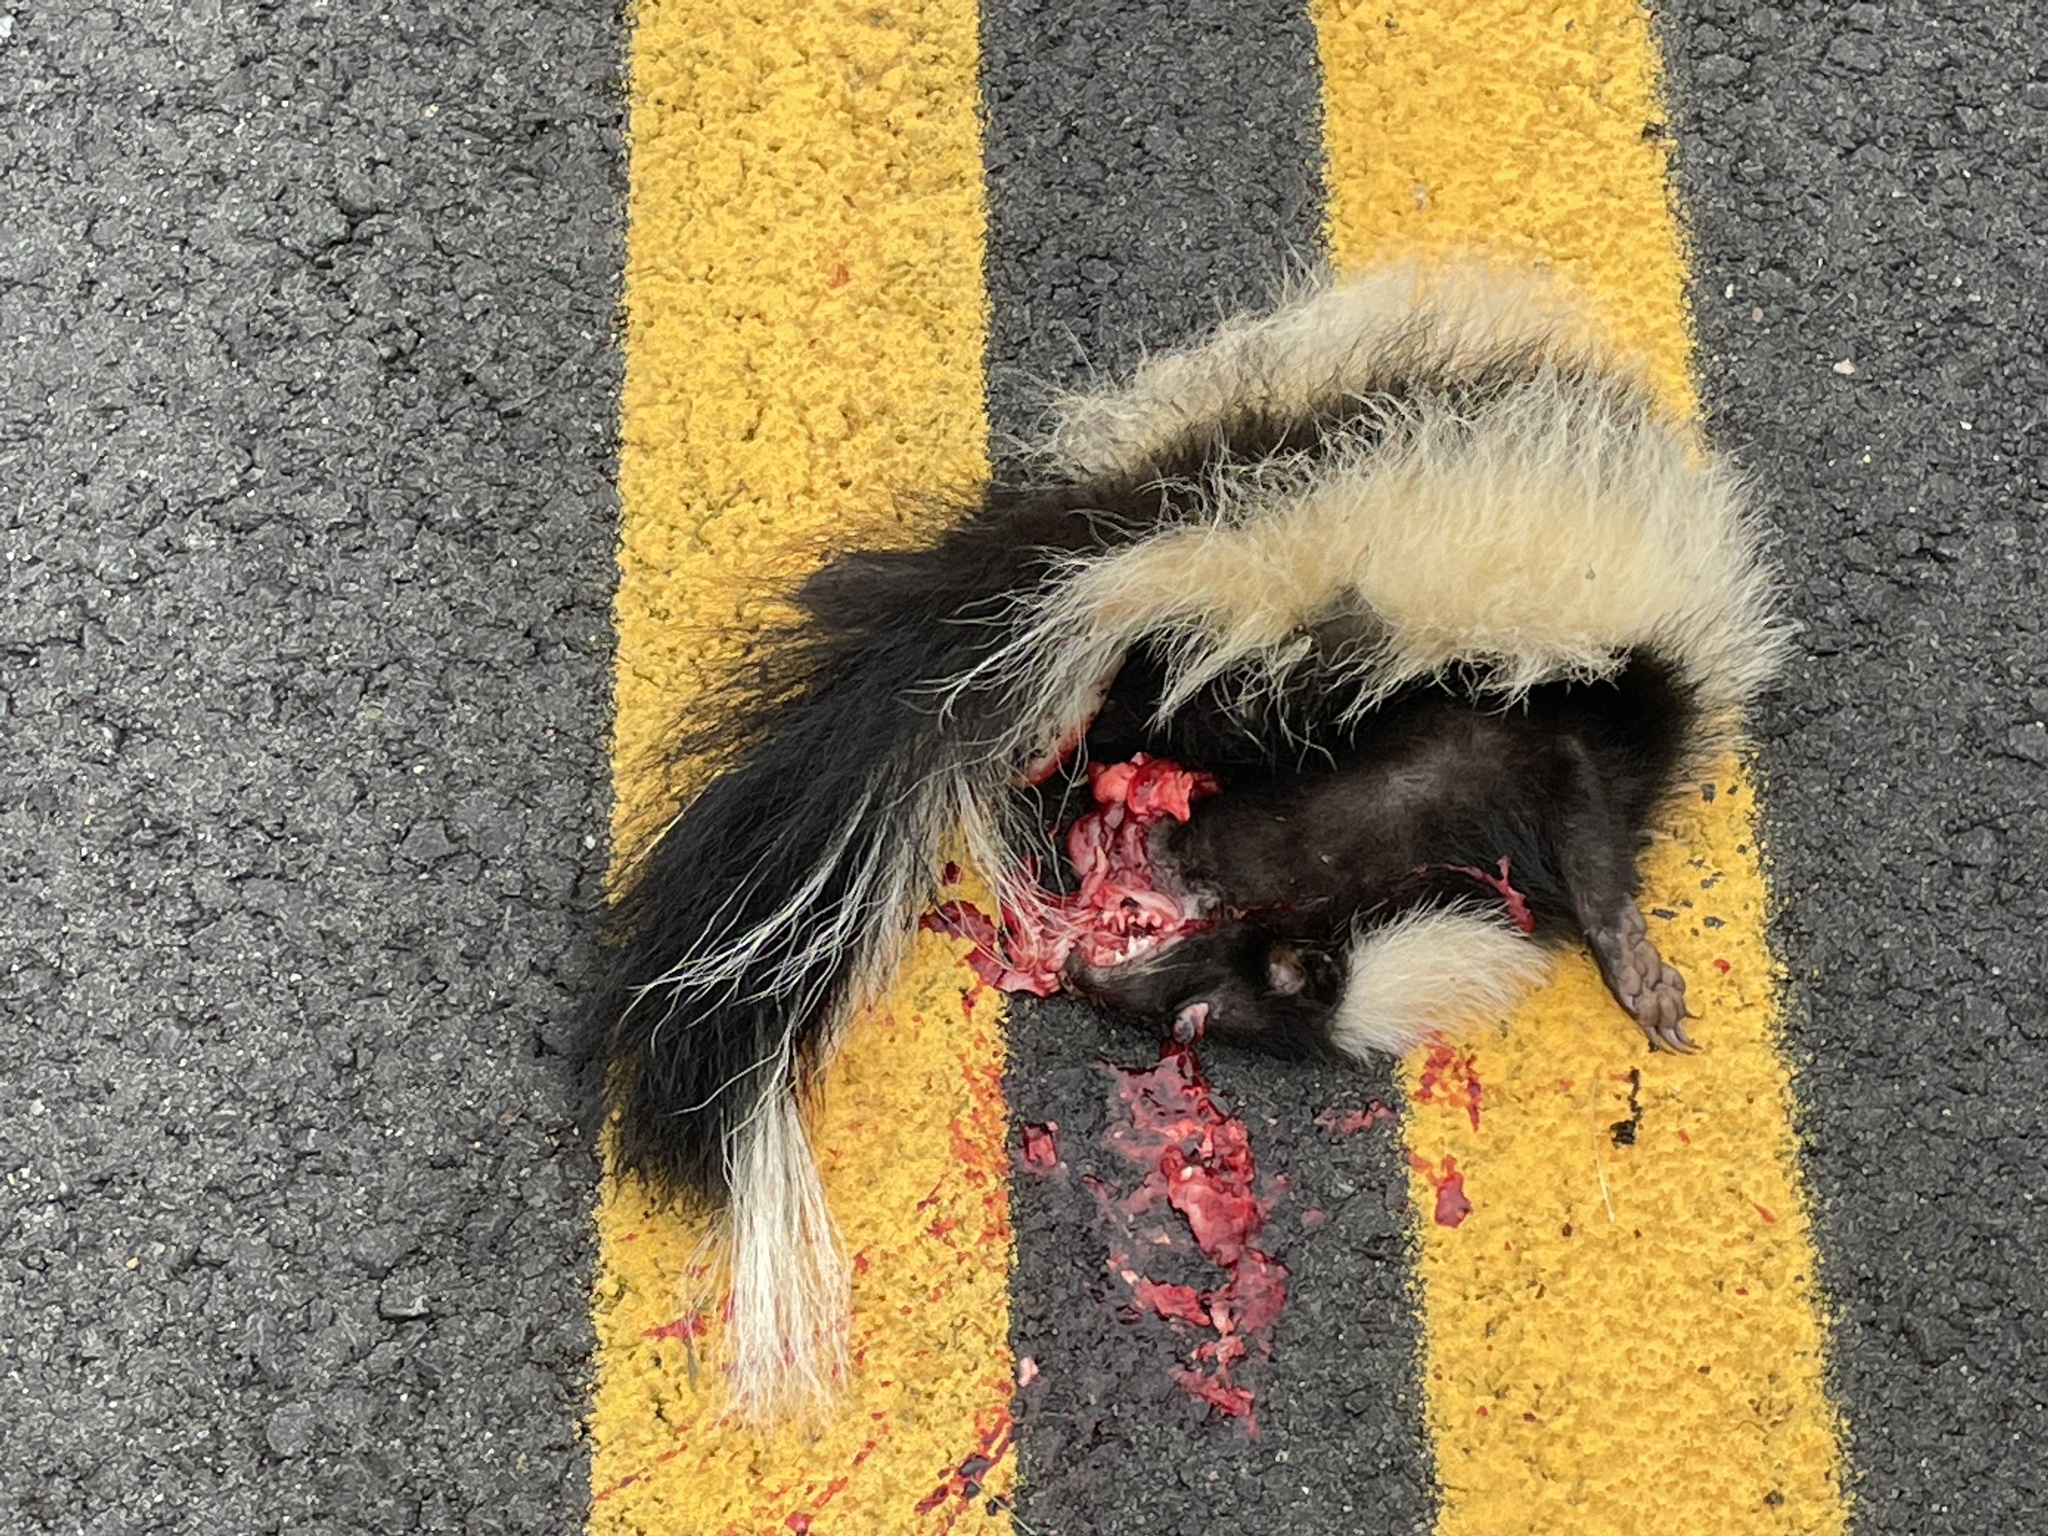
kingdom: Animalia
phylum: Chordata
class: Mammalia
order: Carnivora
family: Mephitidae
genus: Mephitis
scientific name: Mephitis mephitis
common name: Striped skunk
